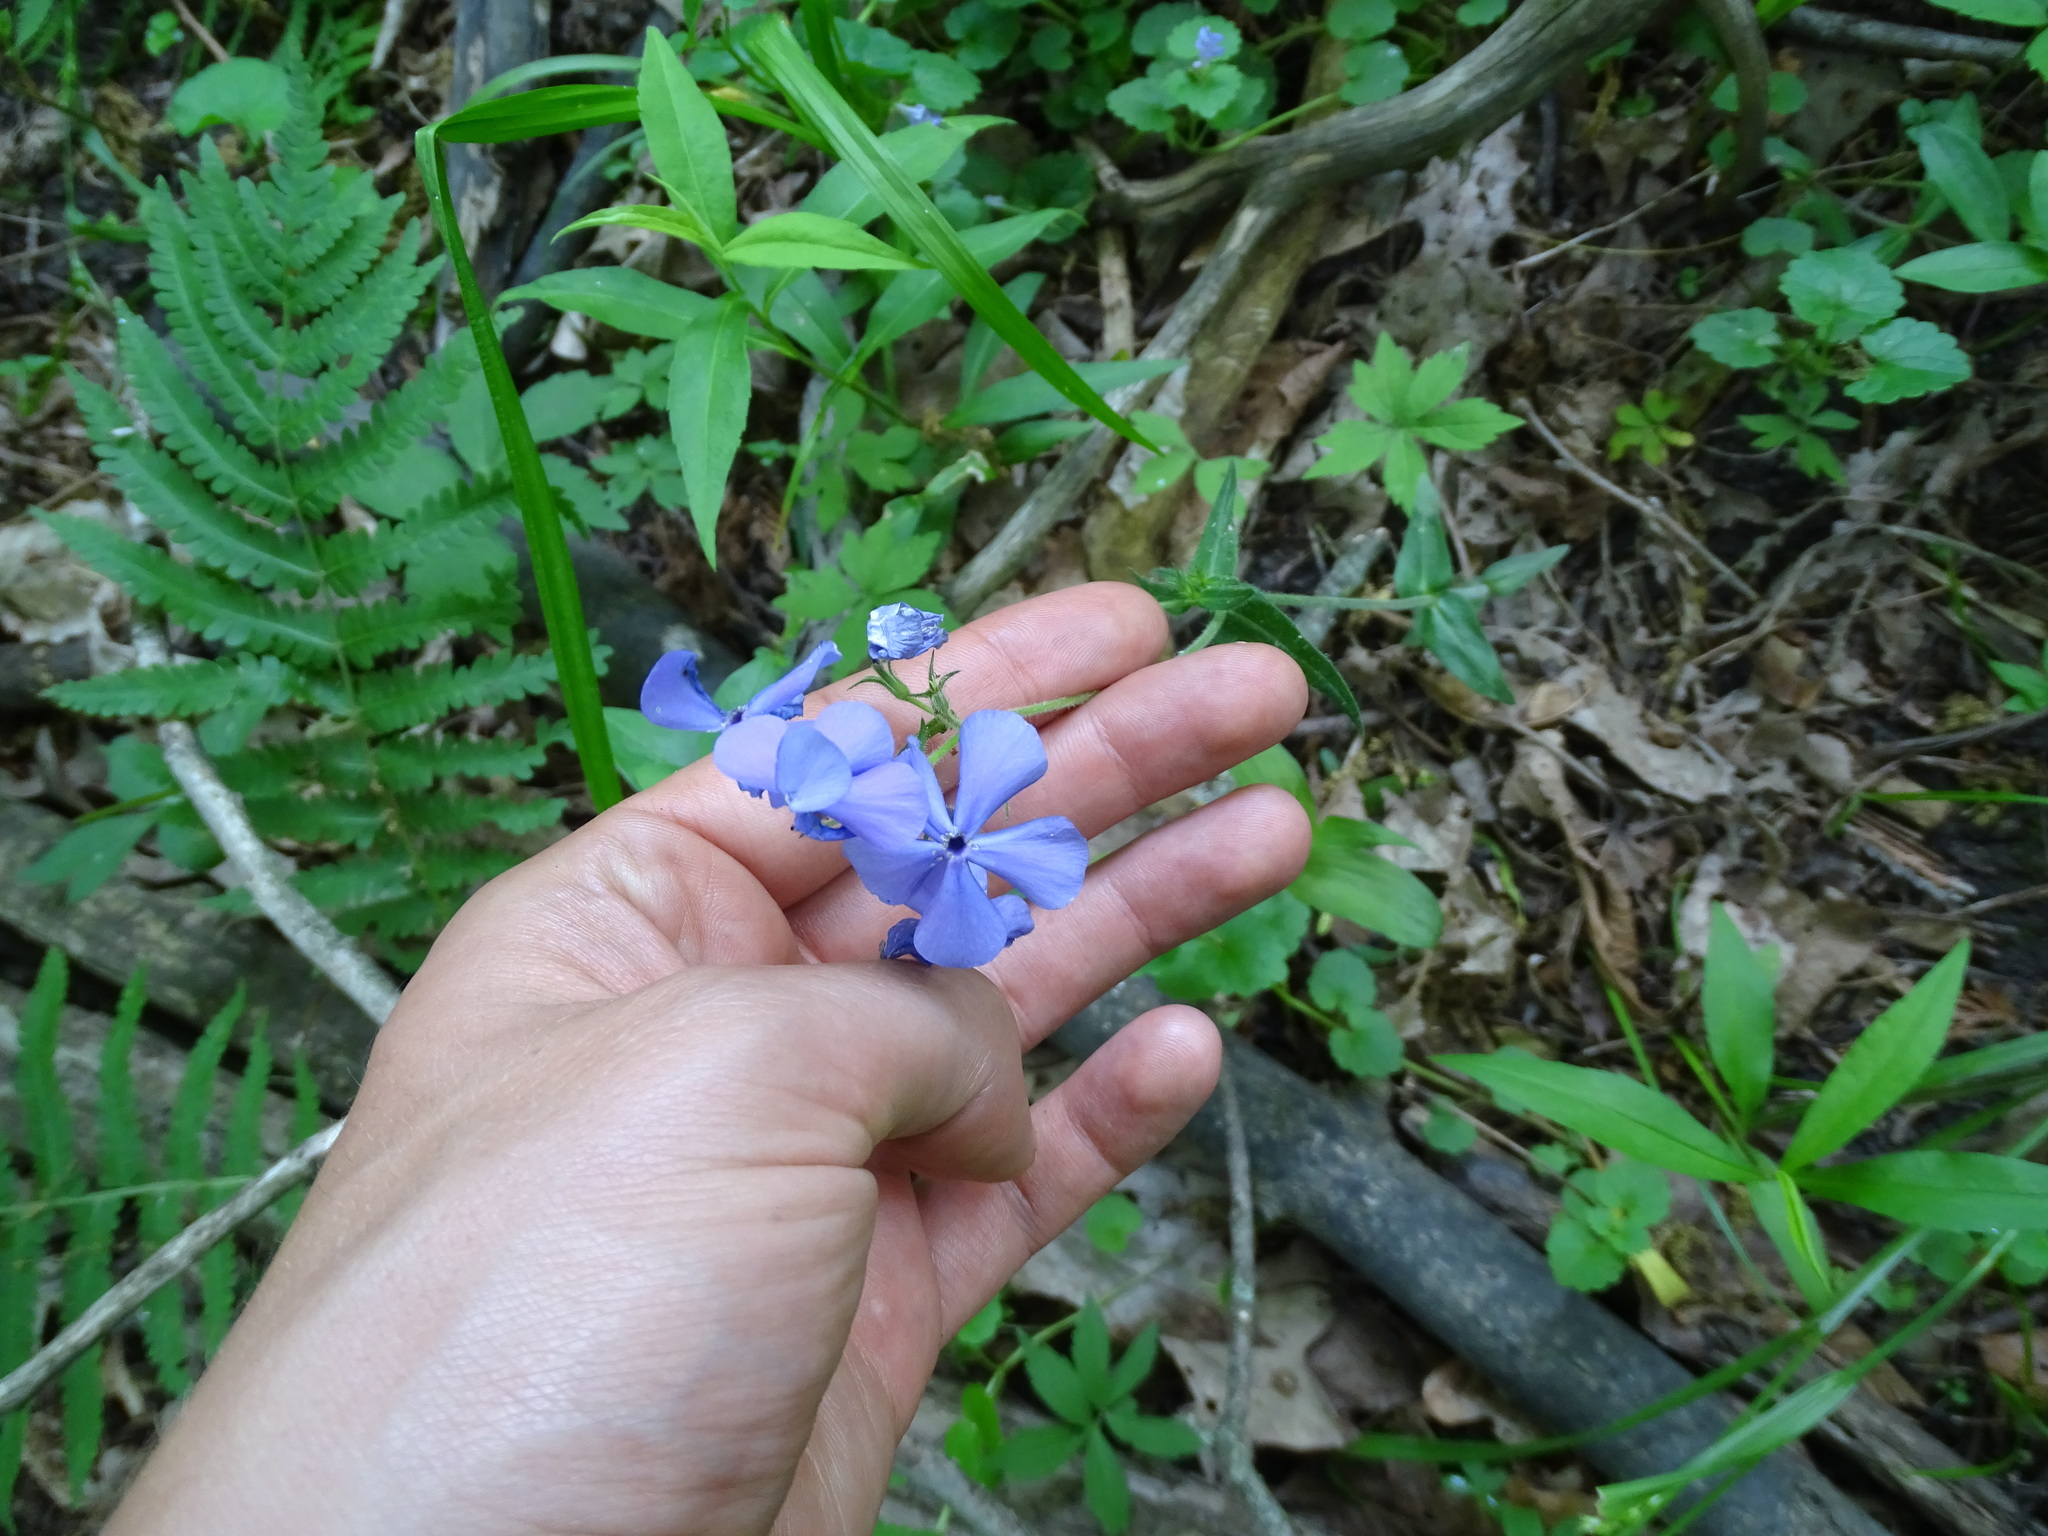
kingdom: Plantae
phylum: Tracheophyta
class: Magnoliopsida
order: Ericales
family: Polemoniaceae
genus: Phlox
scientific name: Phlox divaricata
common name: Blue phlox
